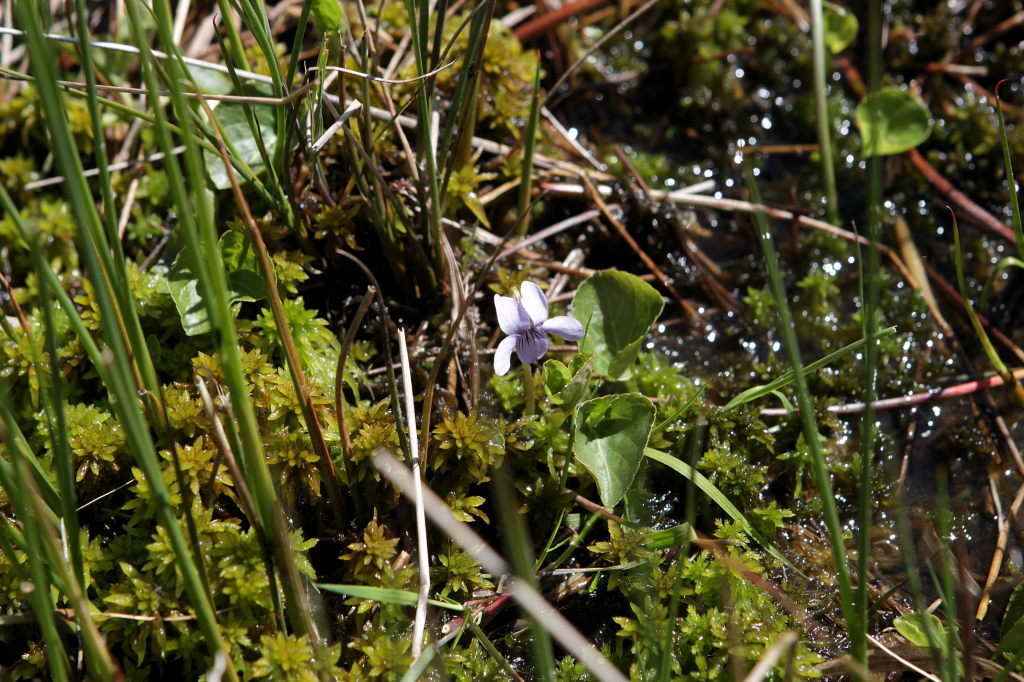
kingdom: Plantae
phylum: Tracheophyta
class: Magnoliopsida
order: Malpighiales
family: Violaceae
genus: Viola
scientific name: Viola palustris
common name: Marsh violet
